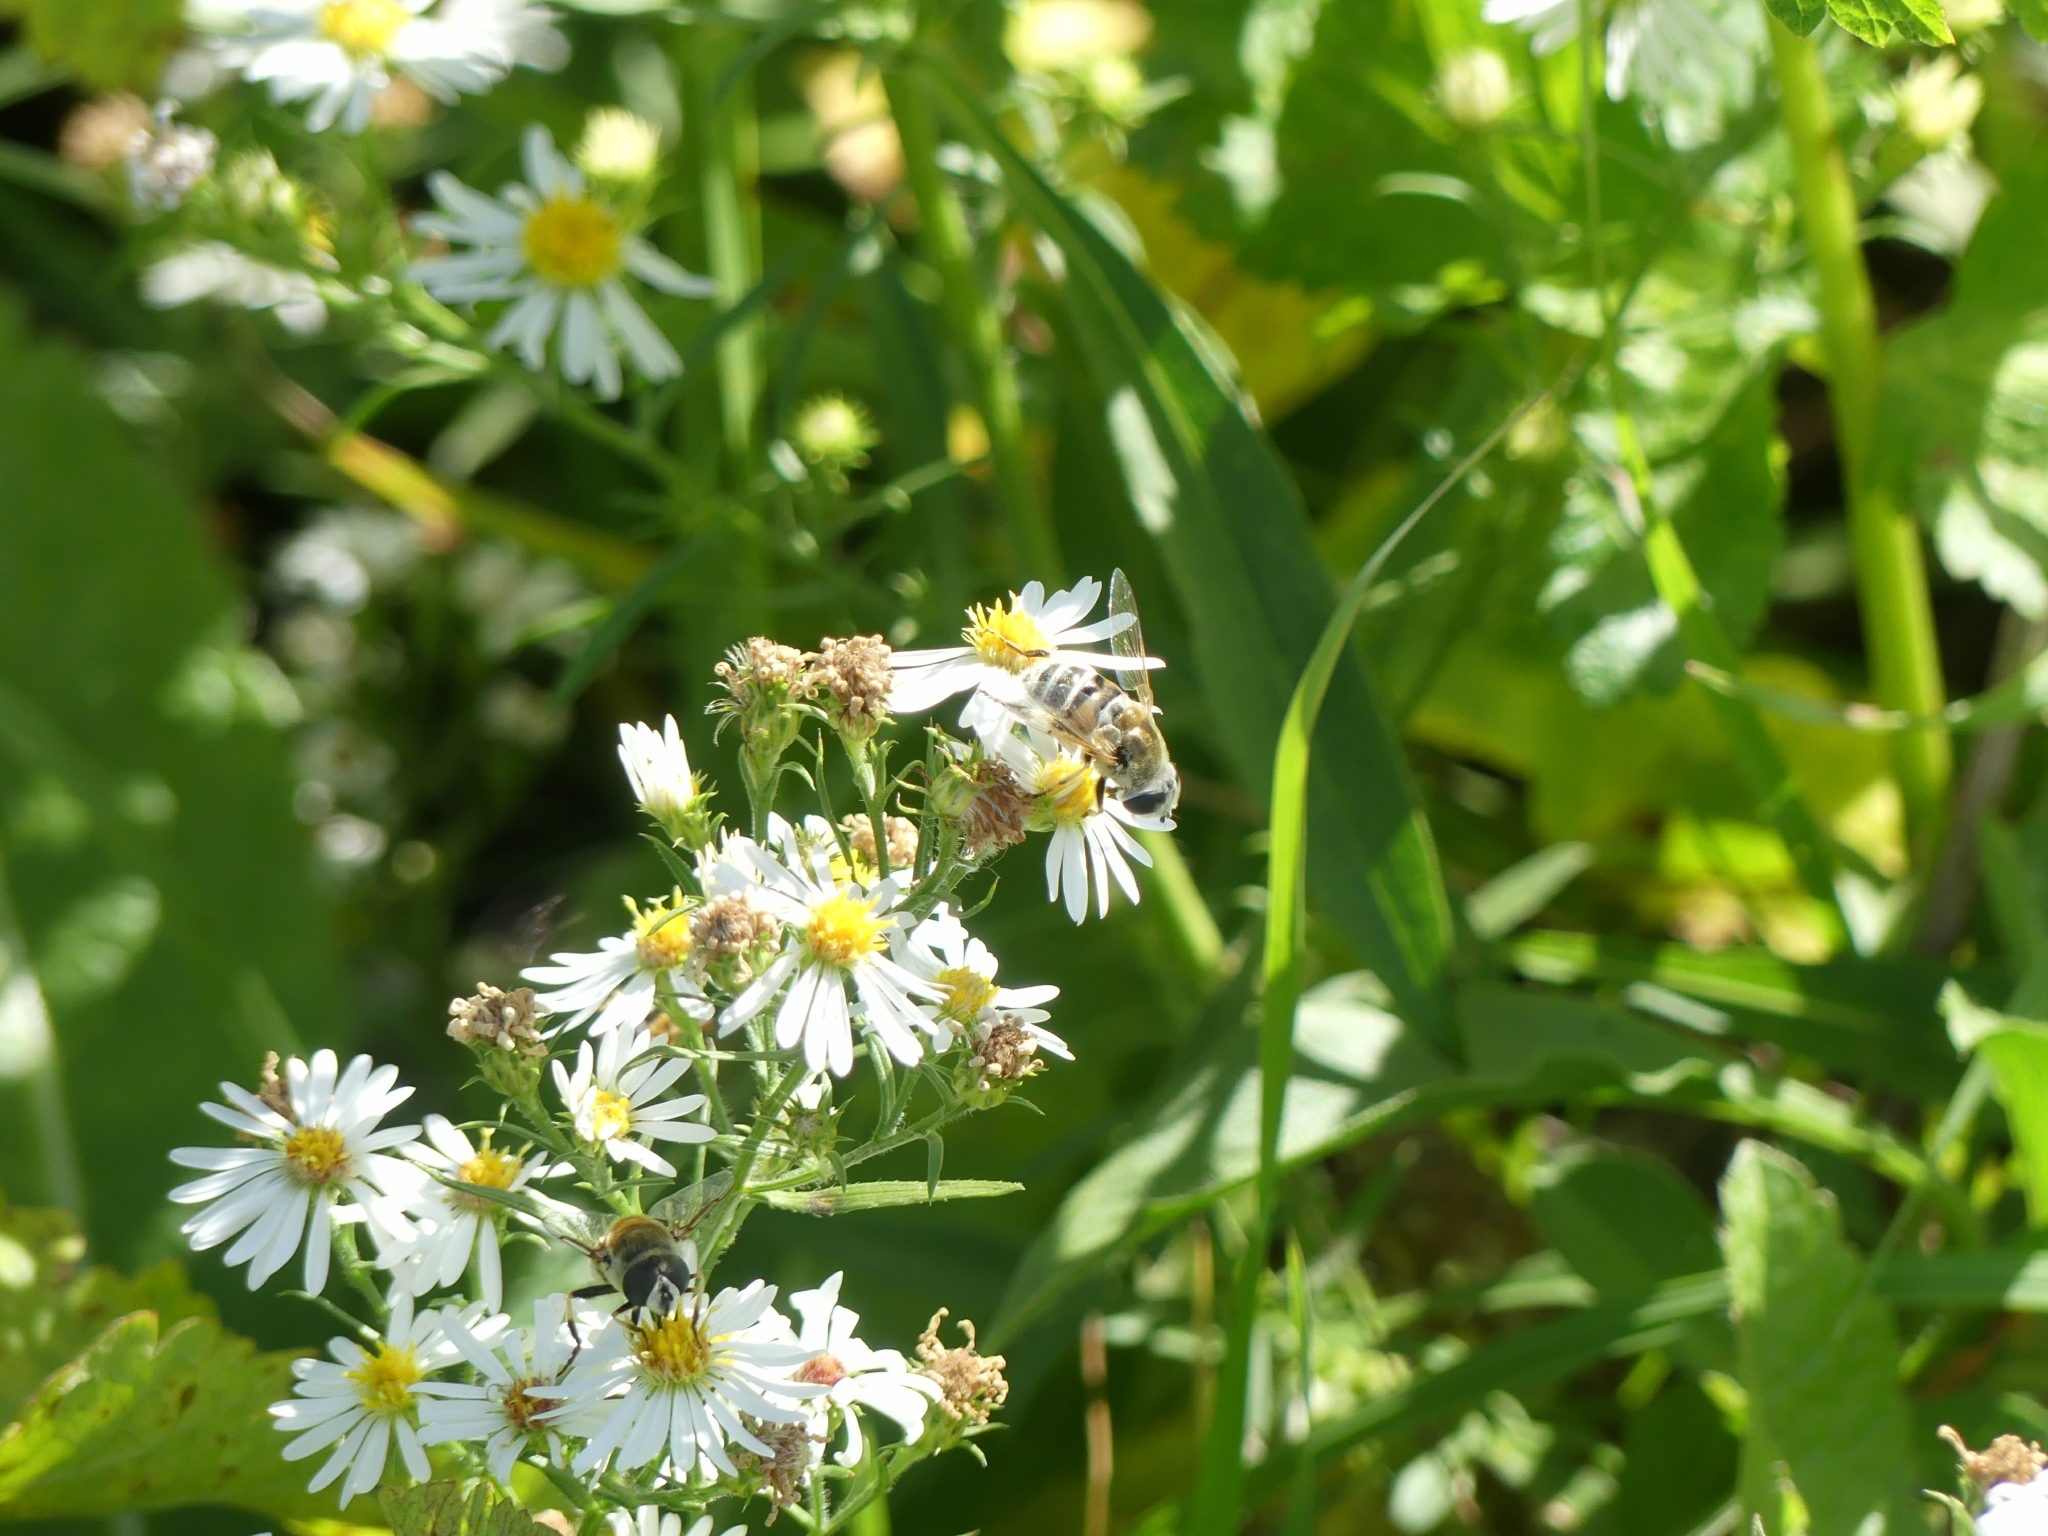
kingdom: Animalia
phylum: Arthropoda
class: Insecta
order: Diptera
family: Syrphidae
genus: Eristalis
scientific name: Eristalis stipator
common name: Yellow-shouldered drone fly
